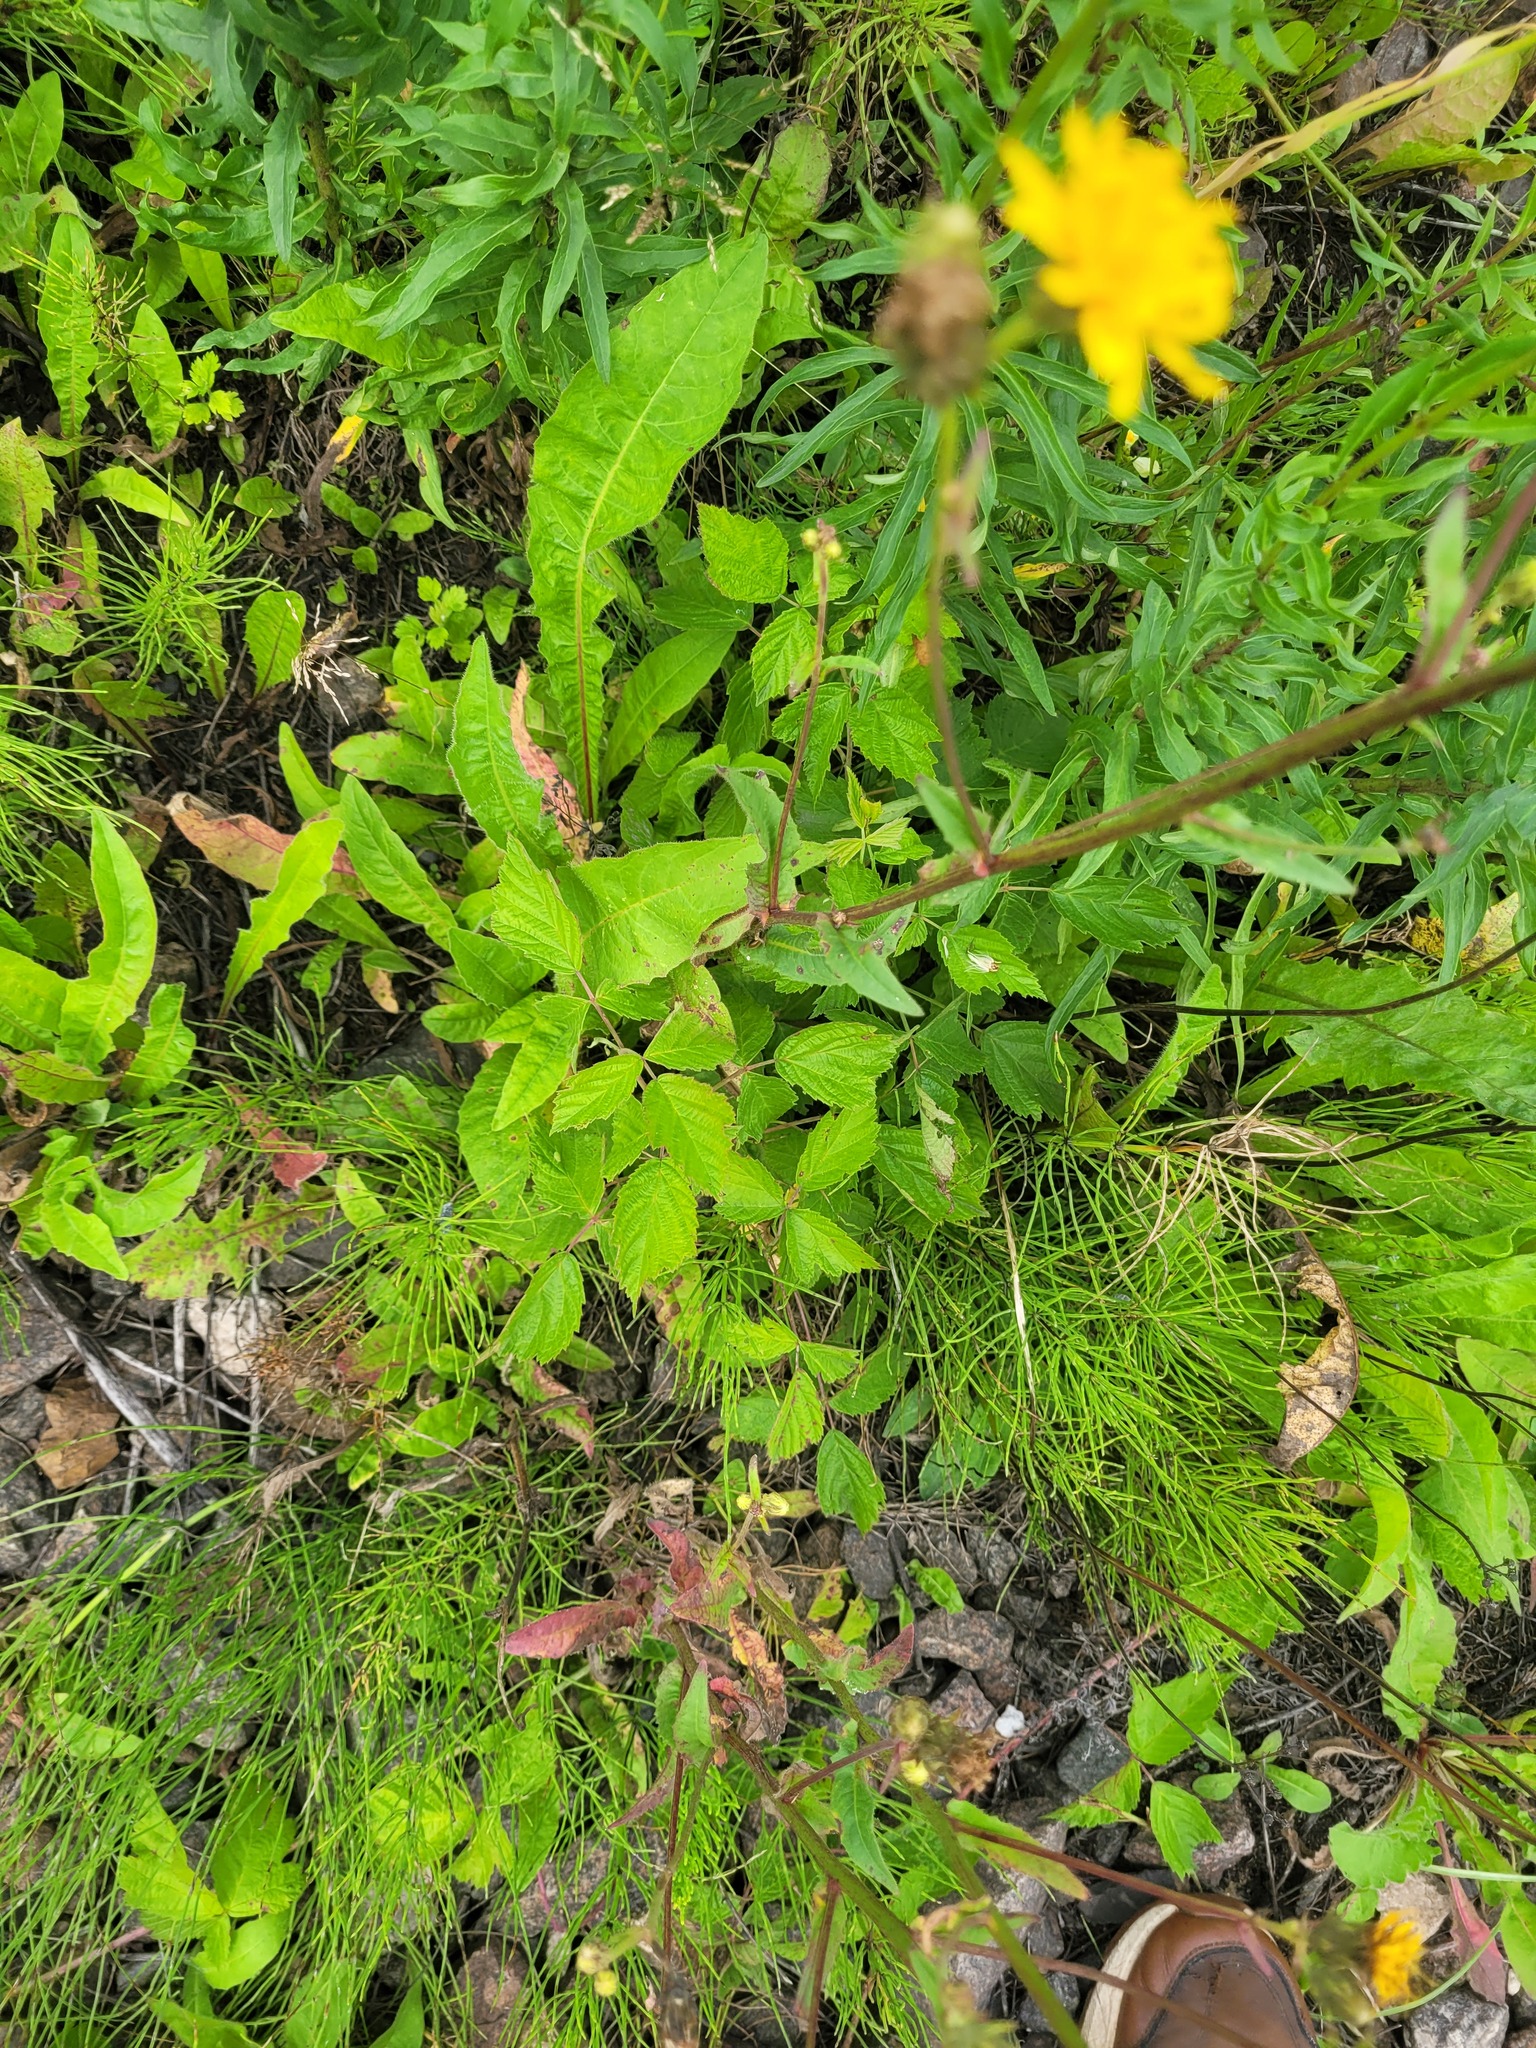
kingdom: Plantae
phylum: Tracheophyta
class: Magnoliopsida
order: Rosales
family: Rosaceae
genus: Rubus
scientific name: Rubus caesius
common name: Dewberry
